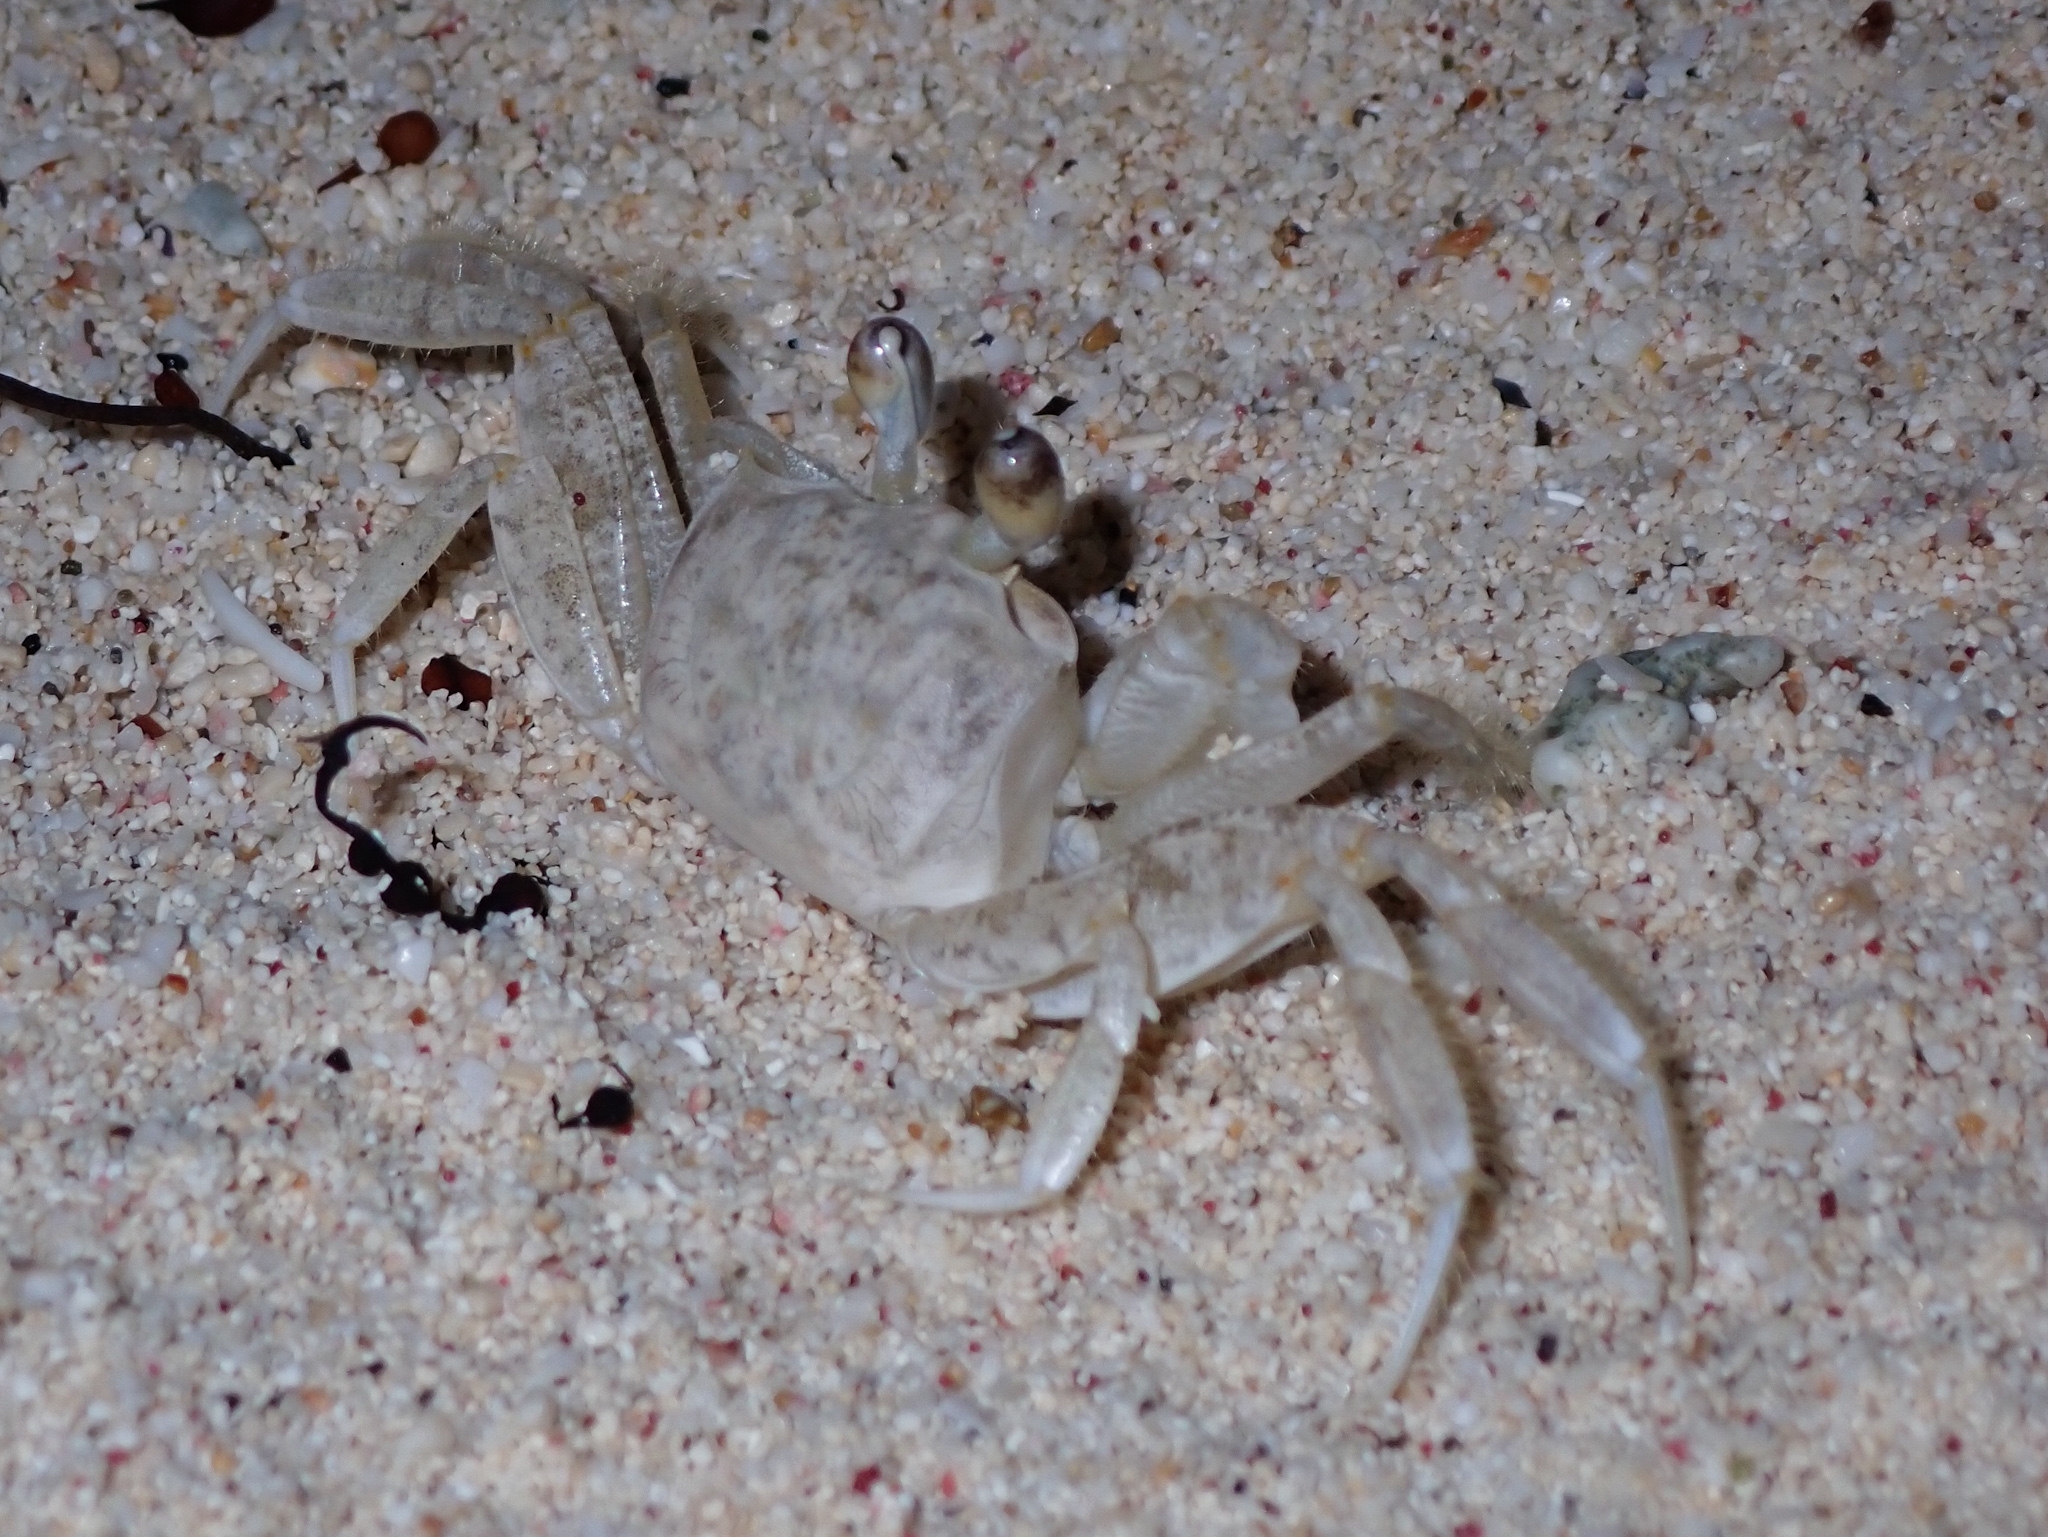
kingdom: Animalia
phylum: Arthropoda
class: Malacostraca
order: Decapoda
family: Ocypodidae
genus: Ocypode
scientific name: Ocypode quadrata
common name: Ghost crab
